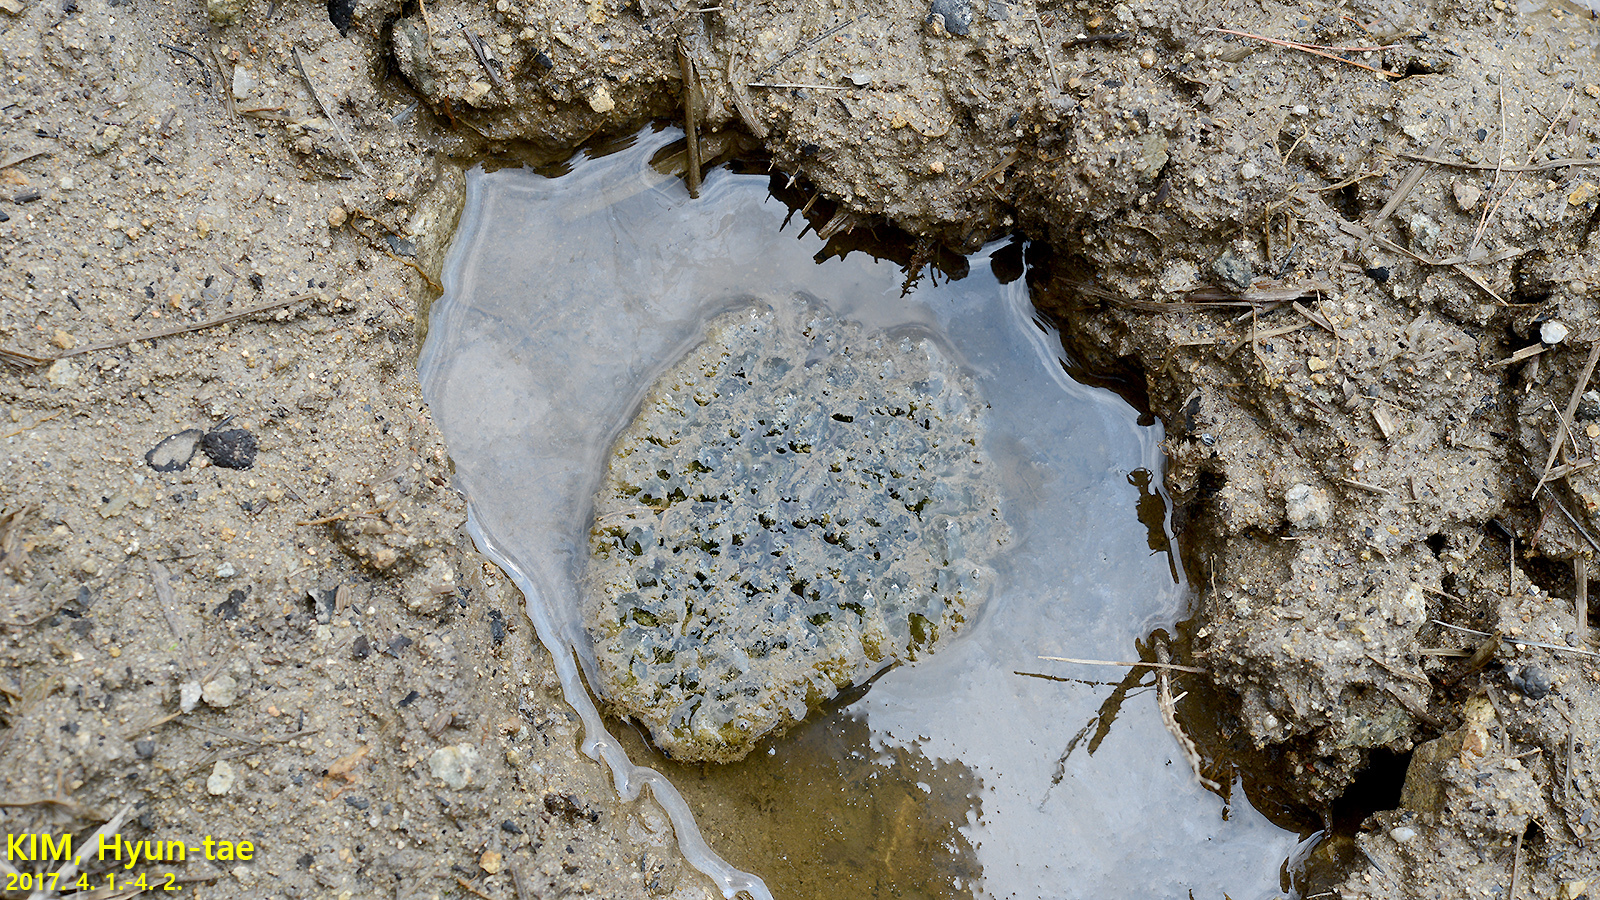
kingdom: Animalia
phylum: Chordata
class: Amphibia
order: Anura
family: Ranidae
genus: Rana
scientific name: Rana coreana
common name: Korean brown frog
